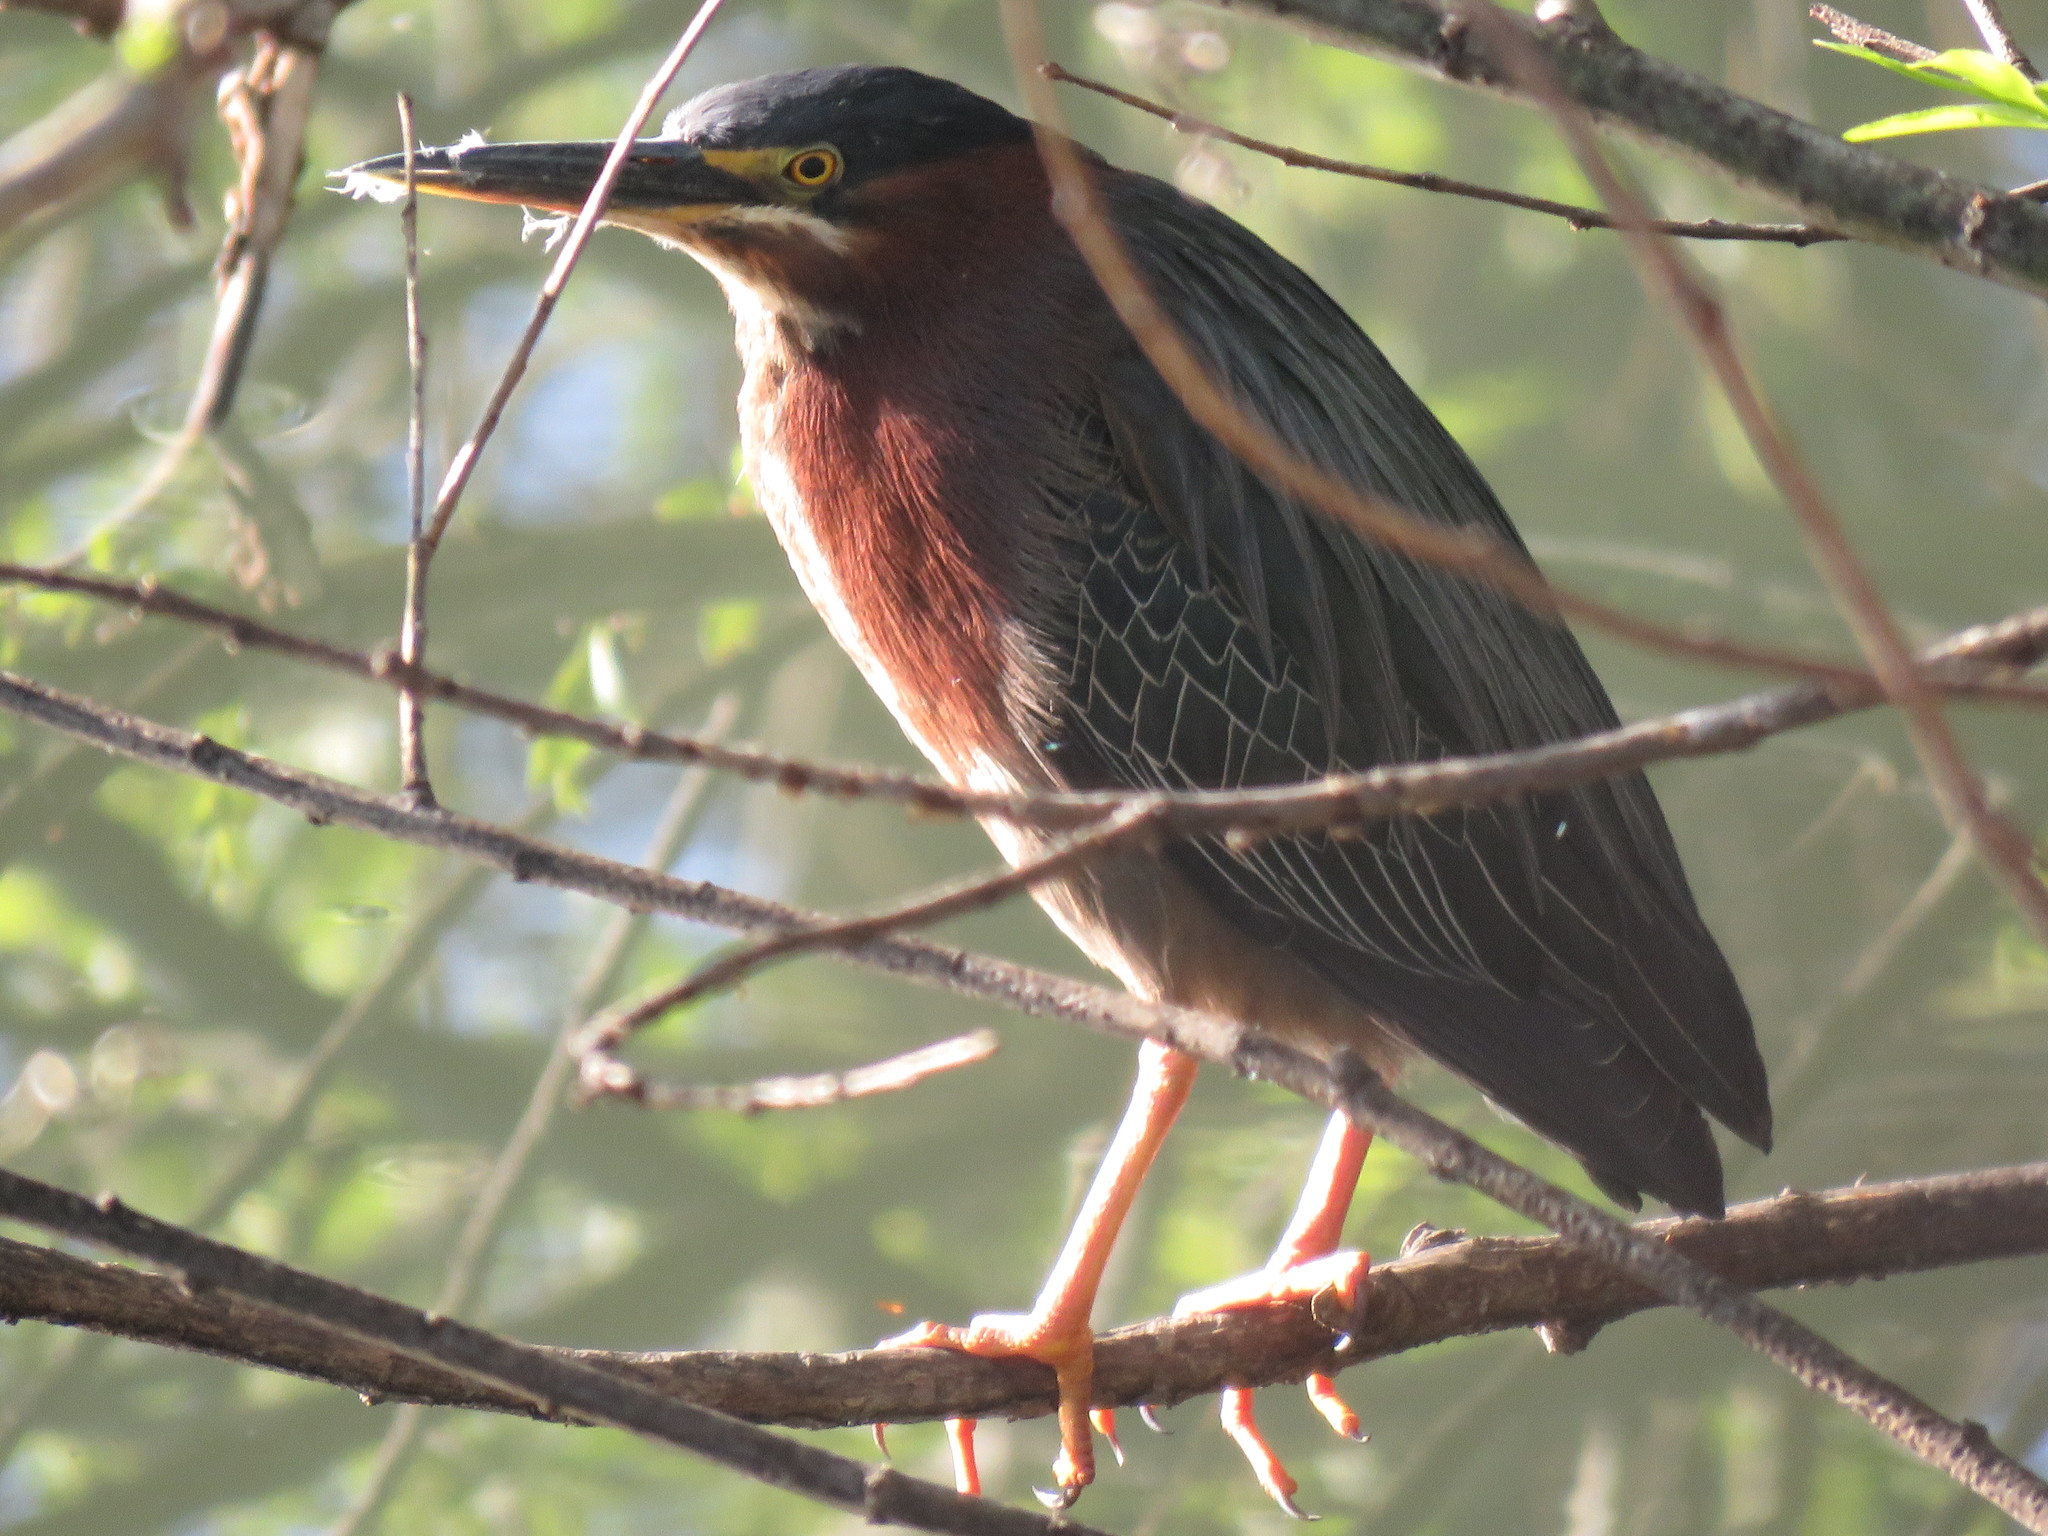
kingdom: Animalia
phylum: Chordata
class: Aves
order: Pelecaniformes
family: Ardeidae
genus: Butorides
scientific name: Butorides virescens
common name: Green heron
